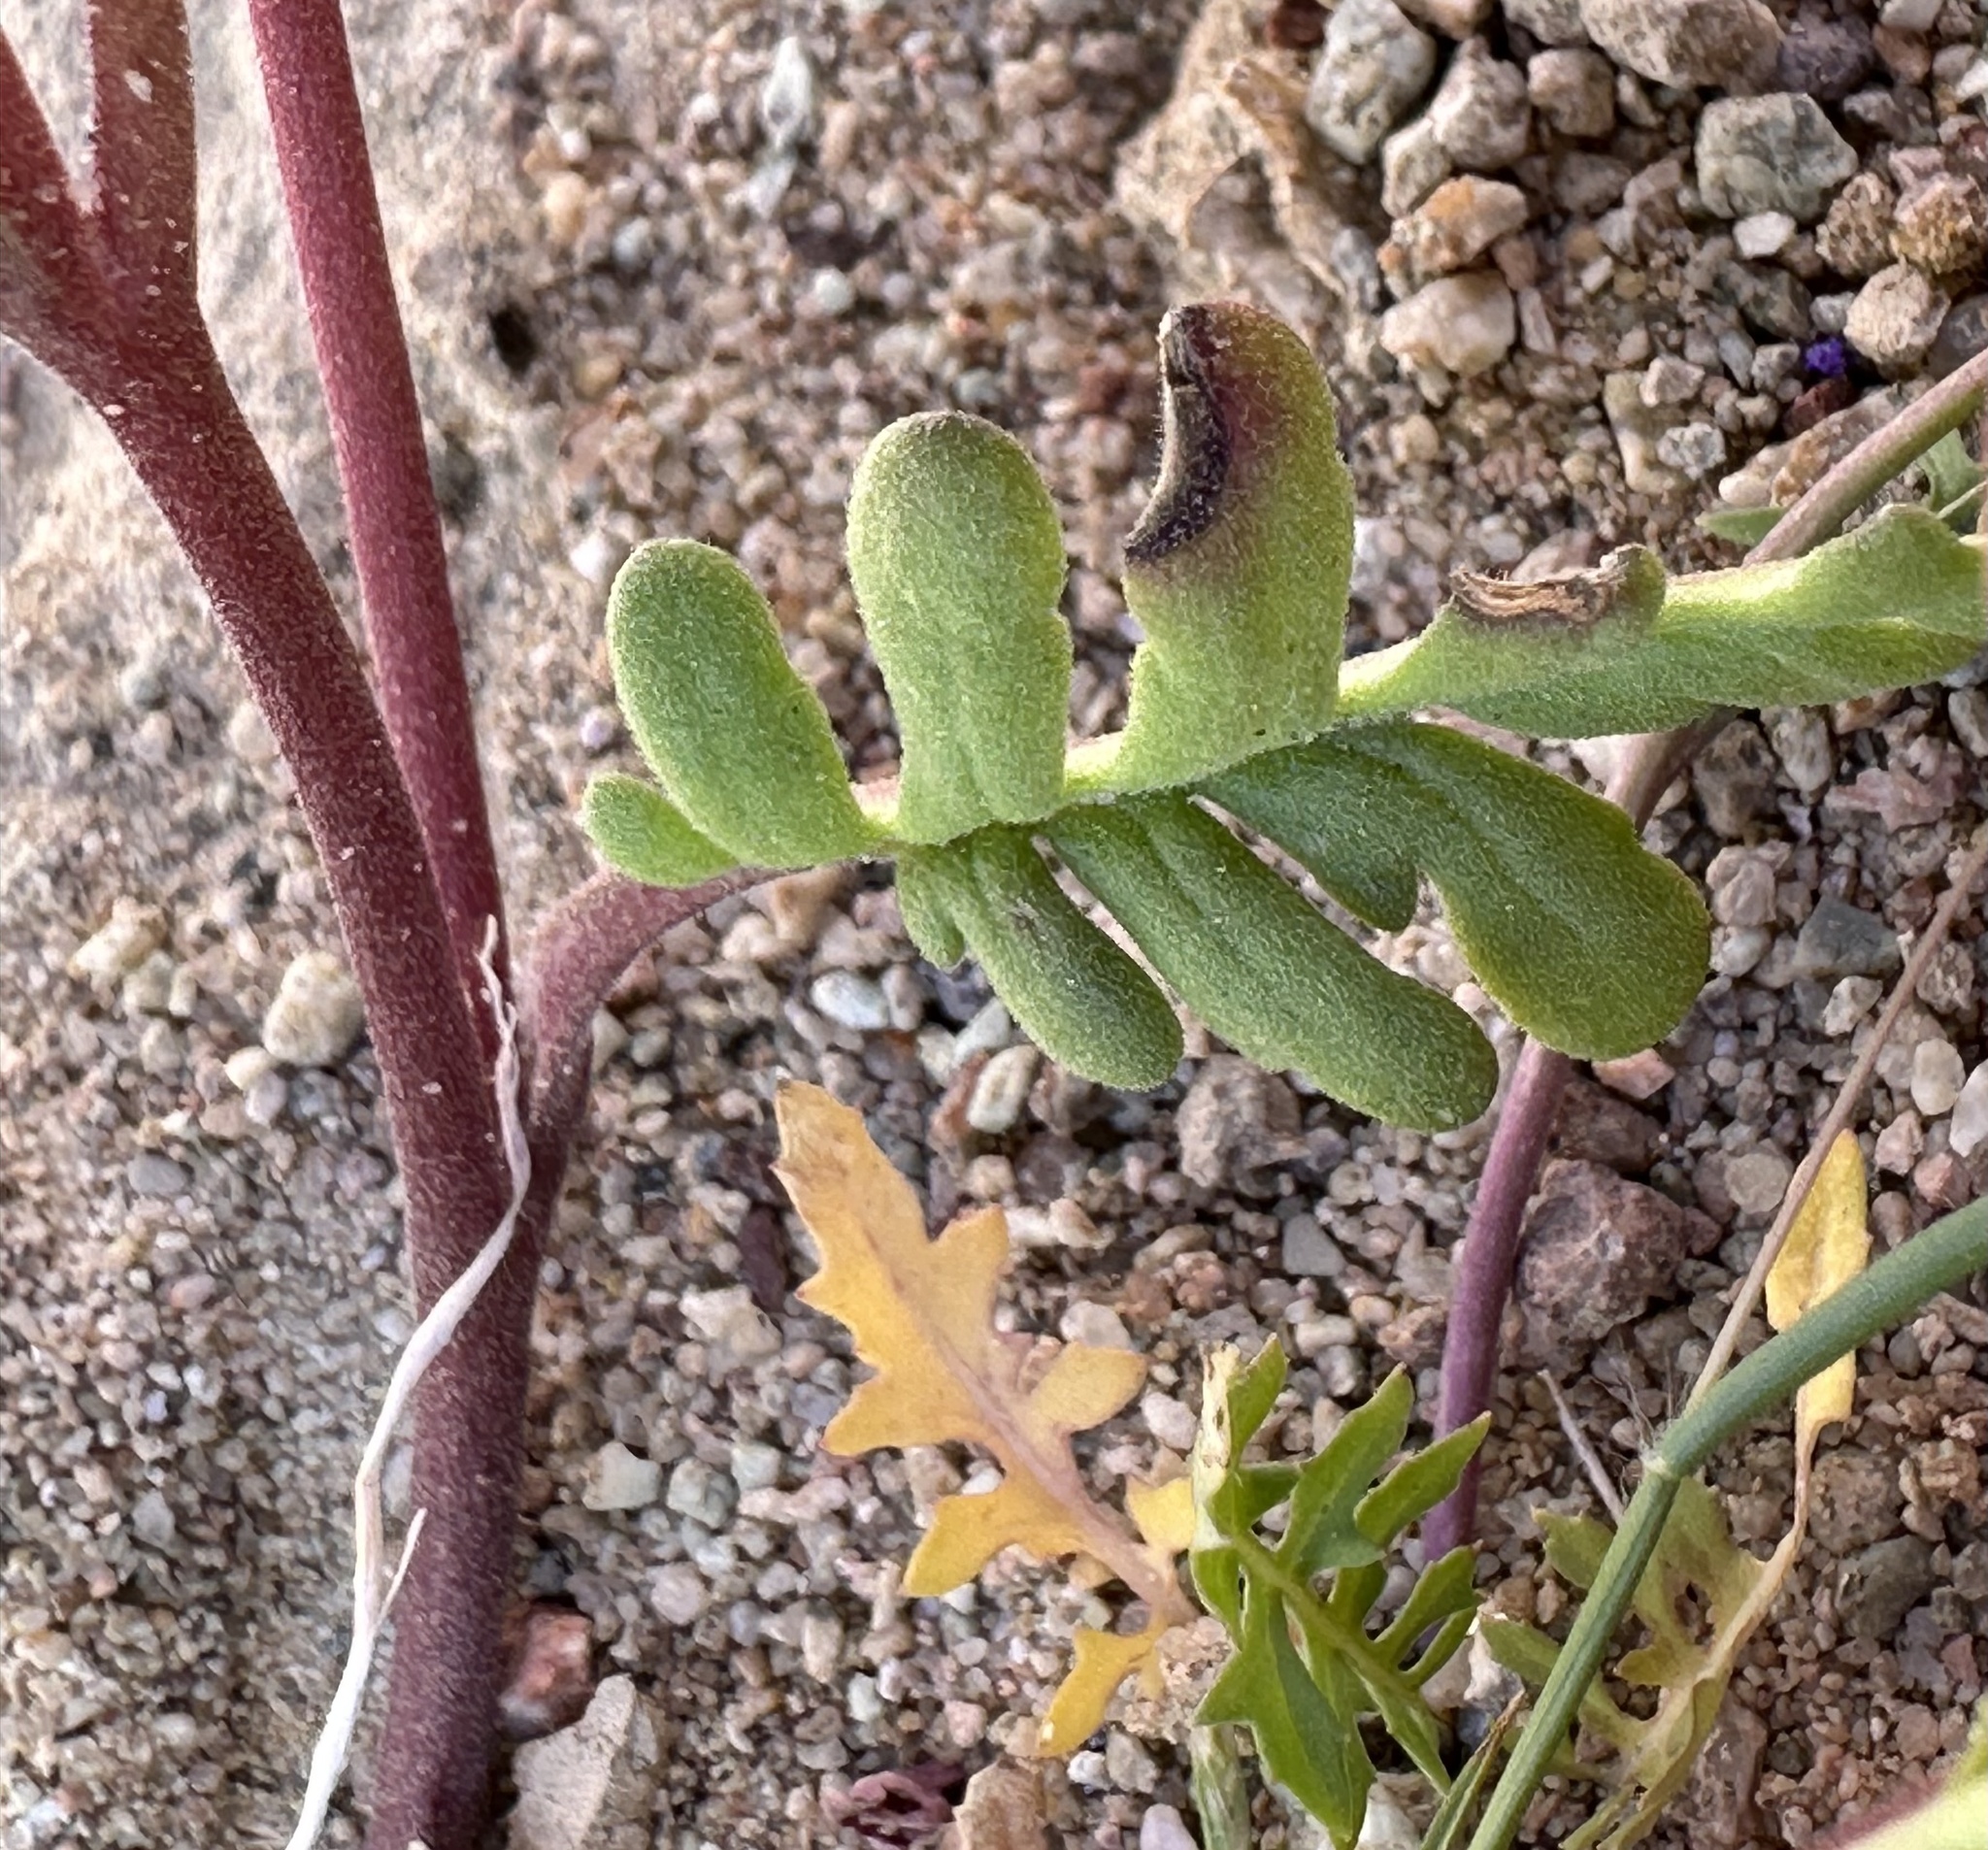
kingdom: Plantae
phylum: Tracheophyta
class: Magnoliopsida
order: Boraginales
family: Hydrophyllaceae
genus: Phacelia
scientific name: Phacelia fremontii
